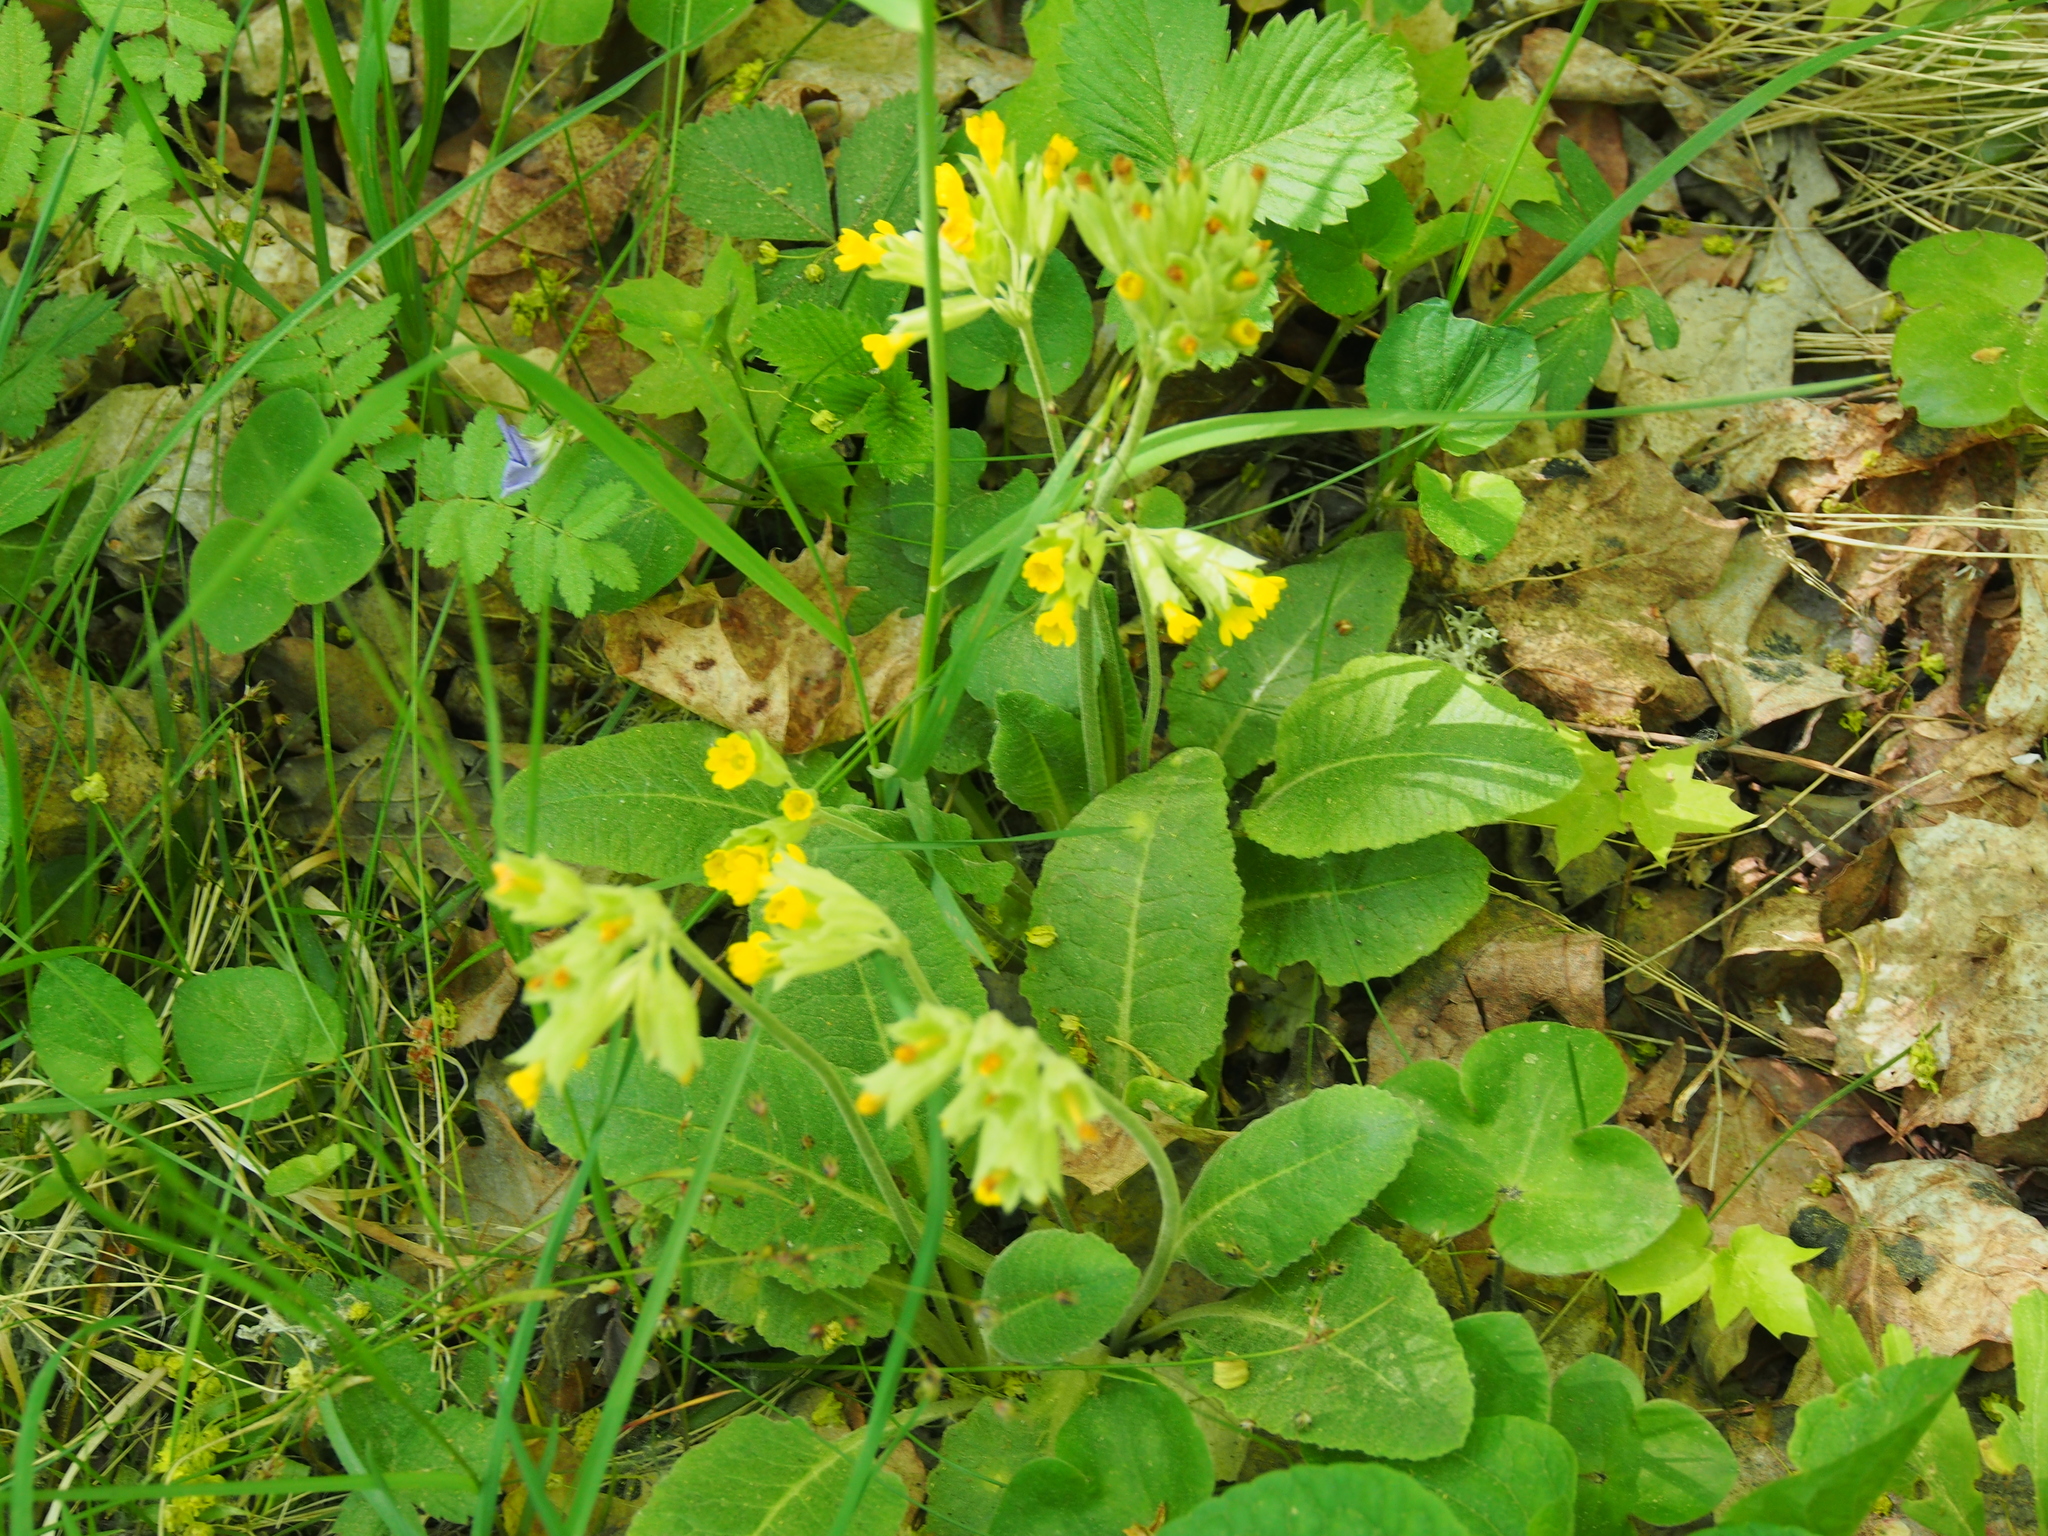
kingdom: Plantae
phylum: Tracheophyta
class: Magnoliopsida
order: Ericales
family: Primulaceae
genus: Primula
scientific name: Primula veris
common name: Cowslip
